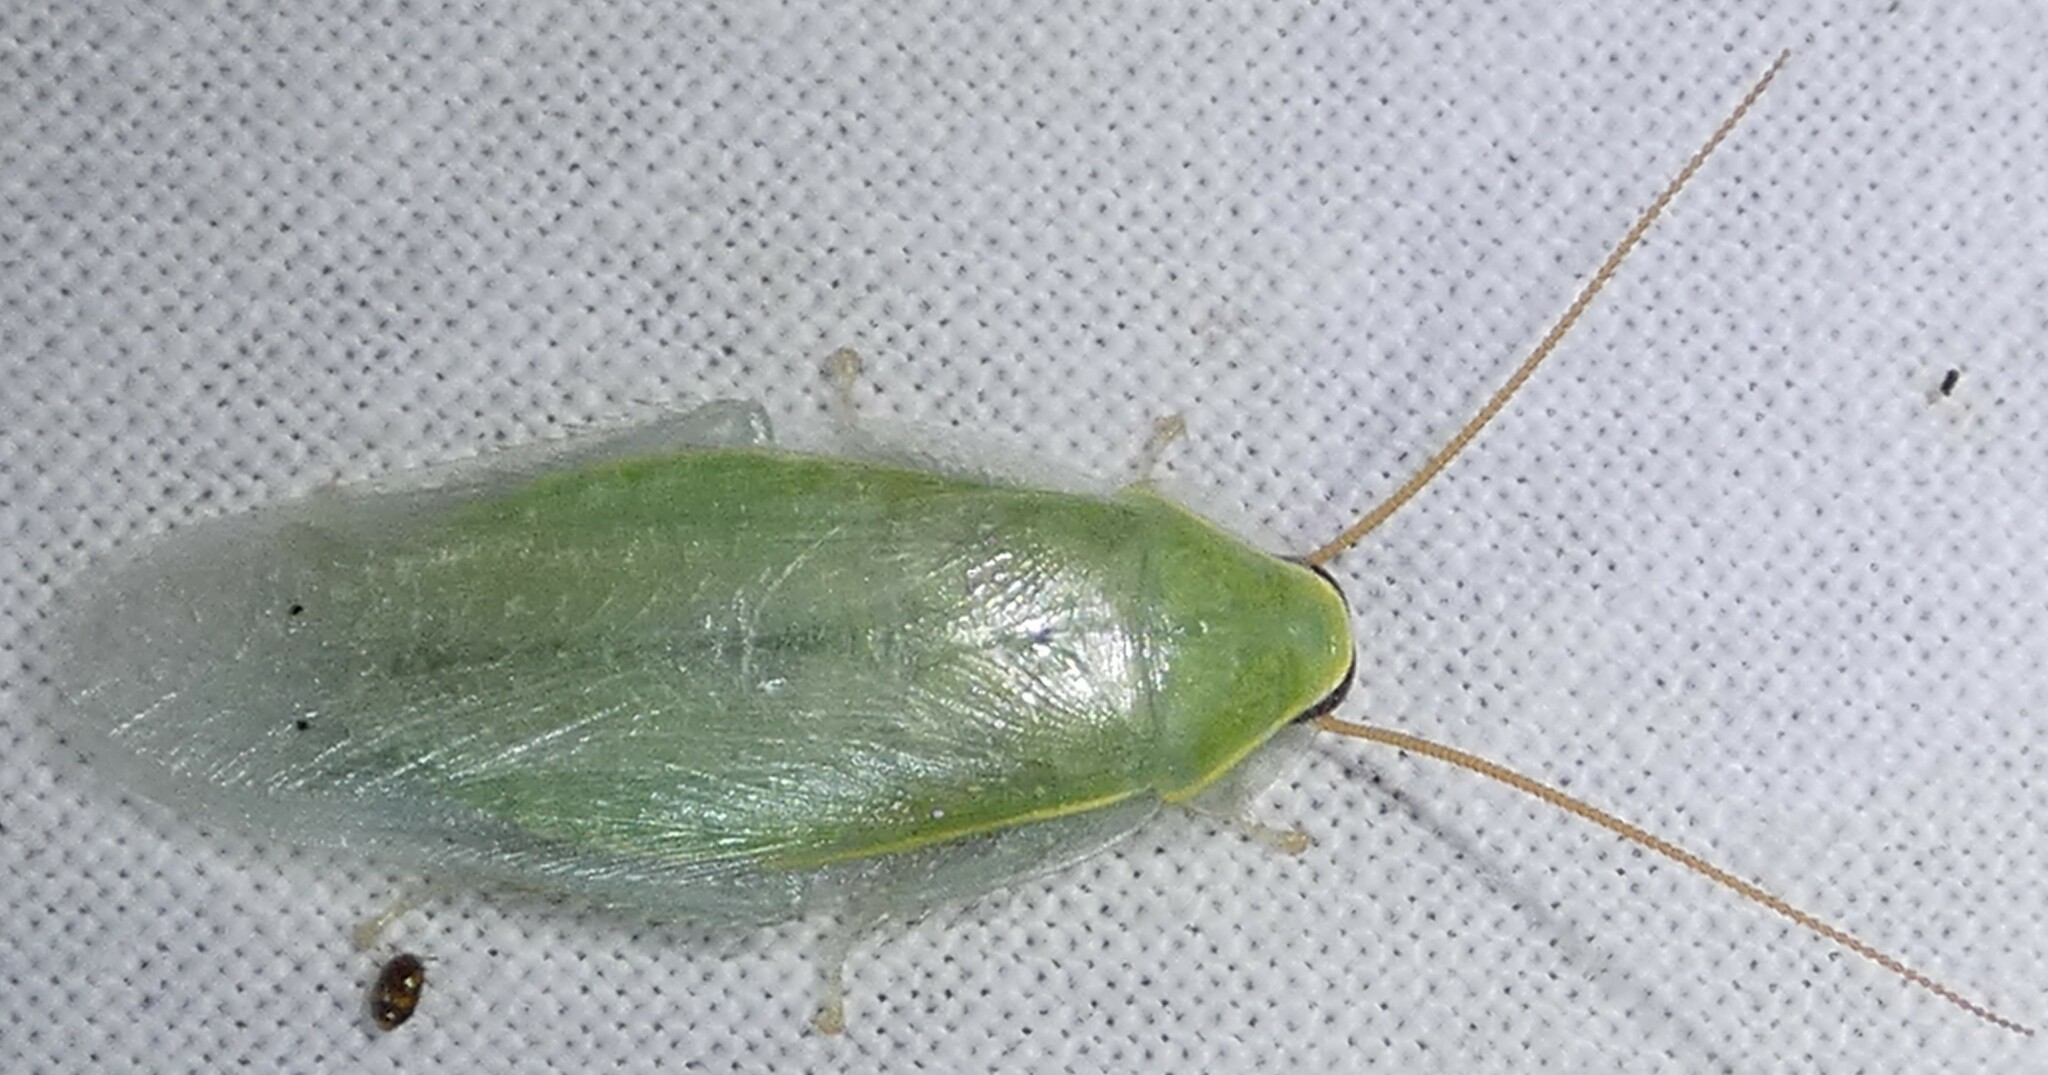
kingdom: Animalia
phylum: Arthropoda
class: Insecta
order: Blattodea
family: Blaberidae
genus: Panchlora
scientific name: Panchlora nivea
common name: Cuban cockroach
